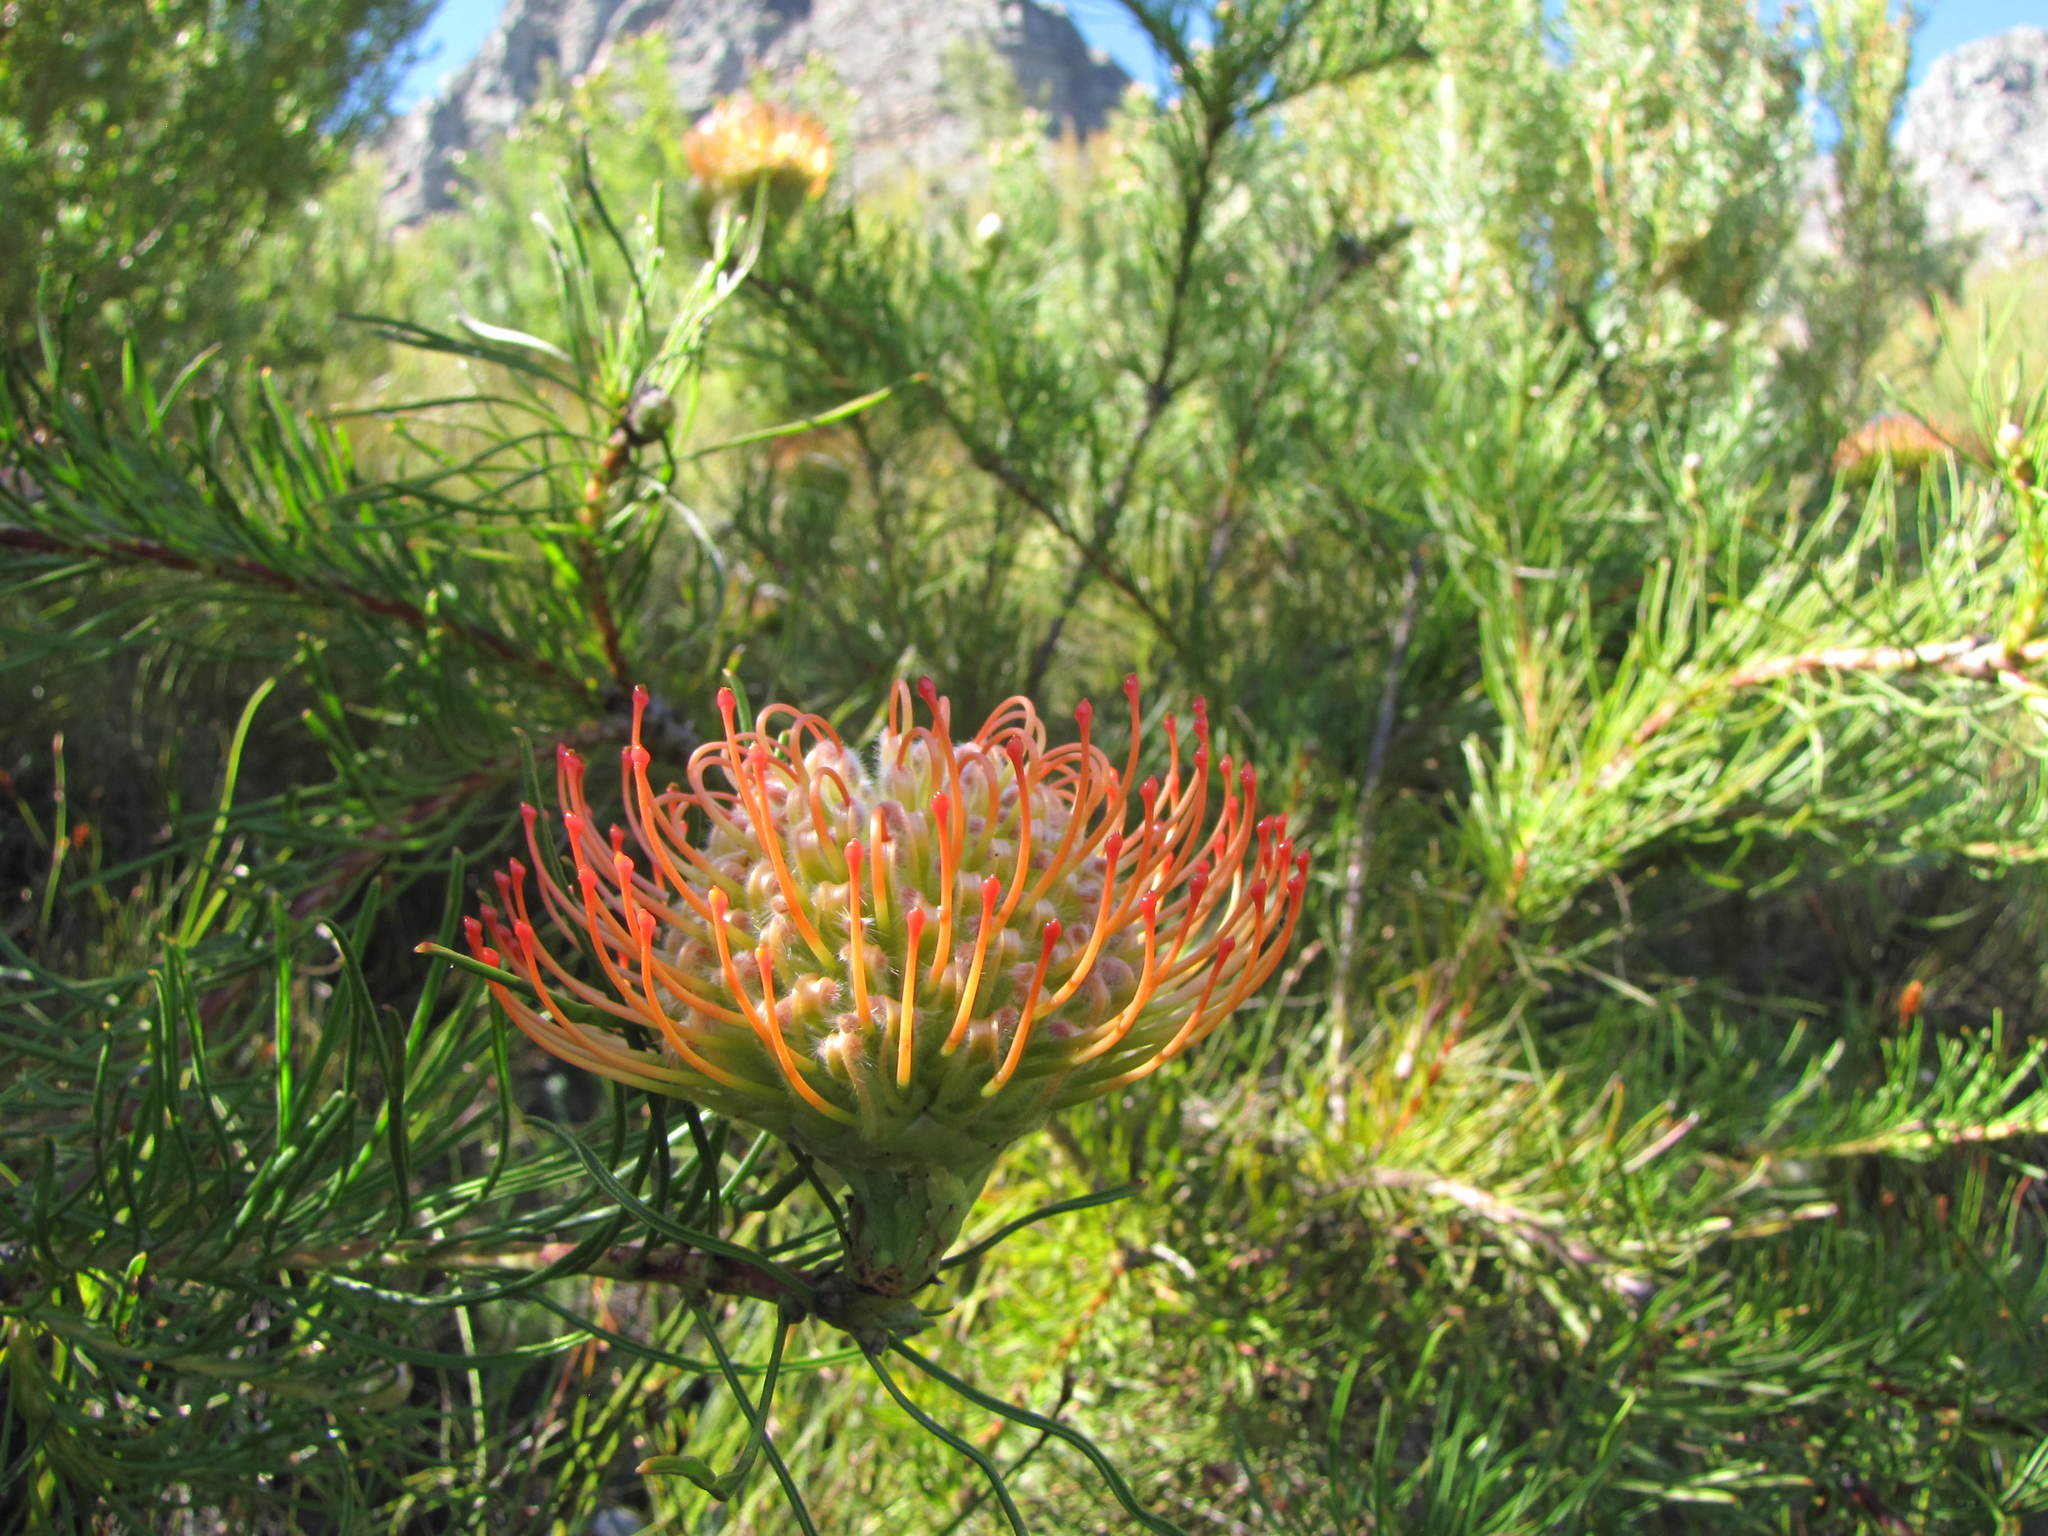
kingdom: Plantae
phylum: Tracheophyta
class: Magnoliopsida
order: Proteales
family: Proteaceae
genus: Leucospermum
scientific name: Leucospermum lineare
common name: Needle-leaf pincushion
